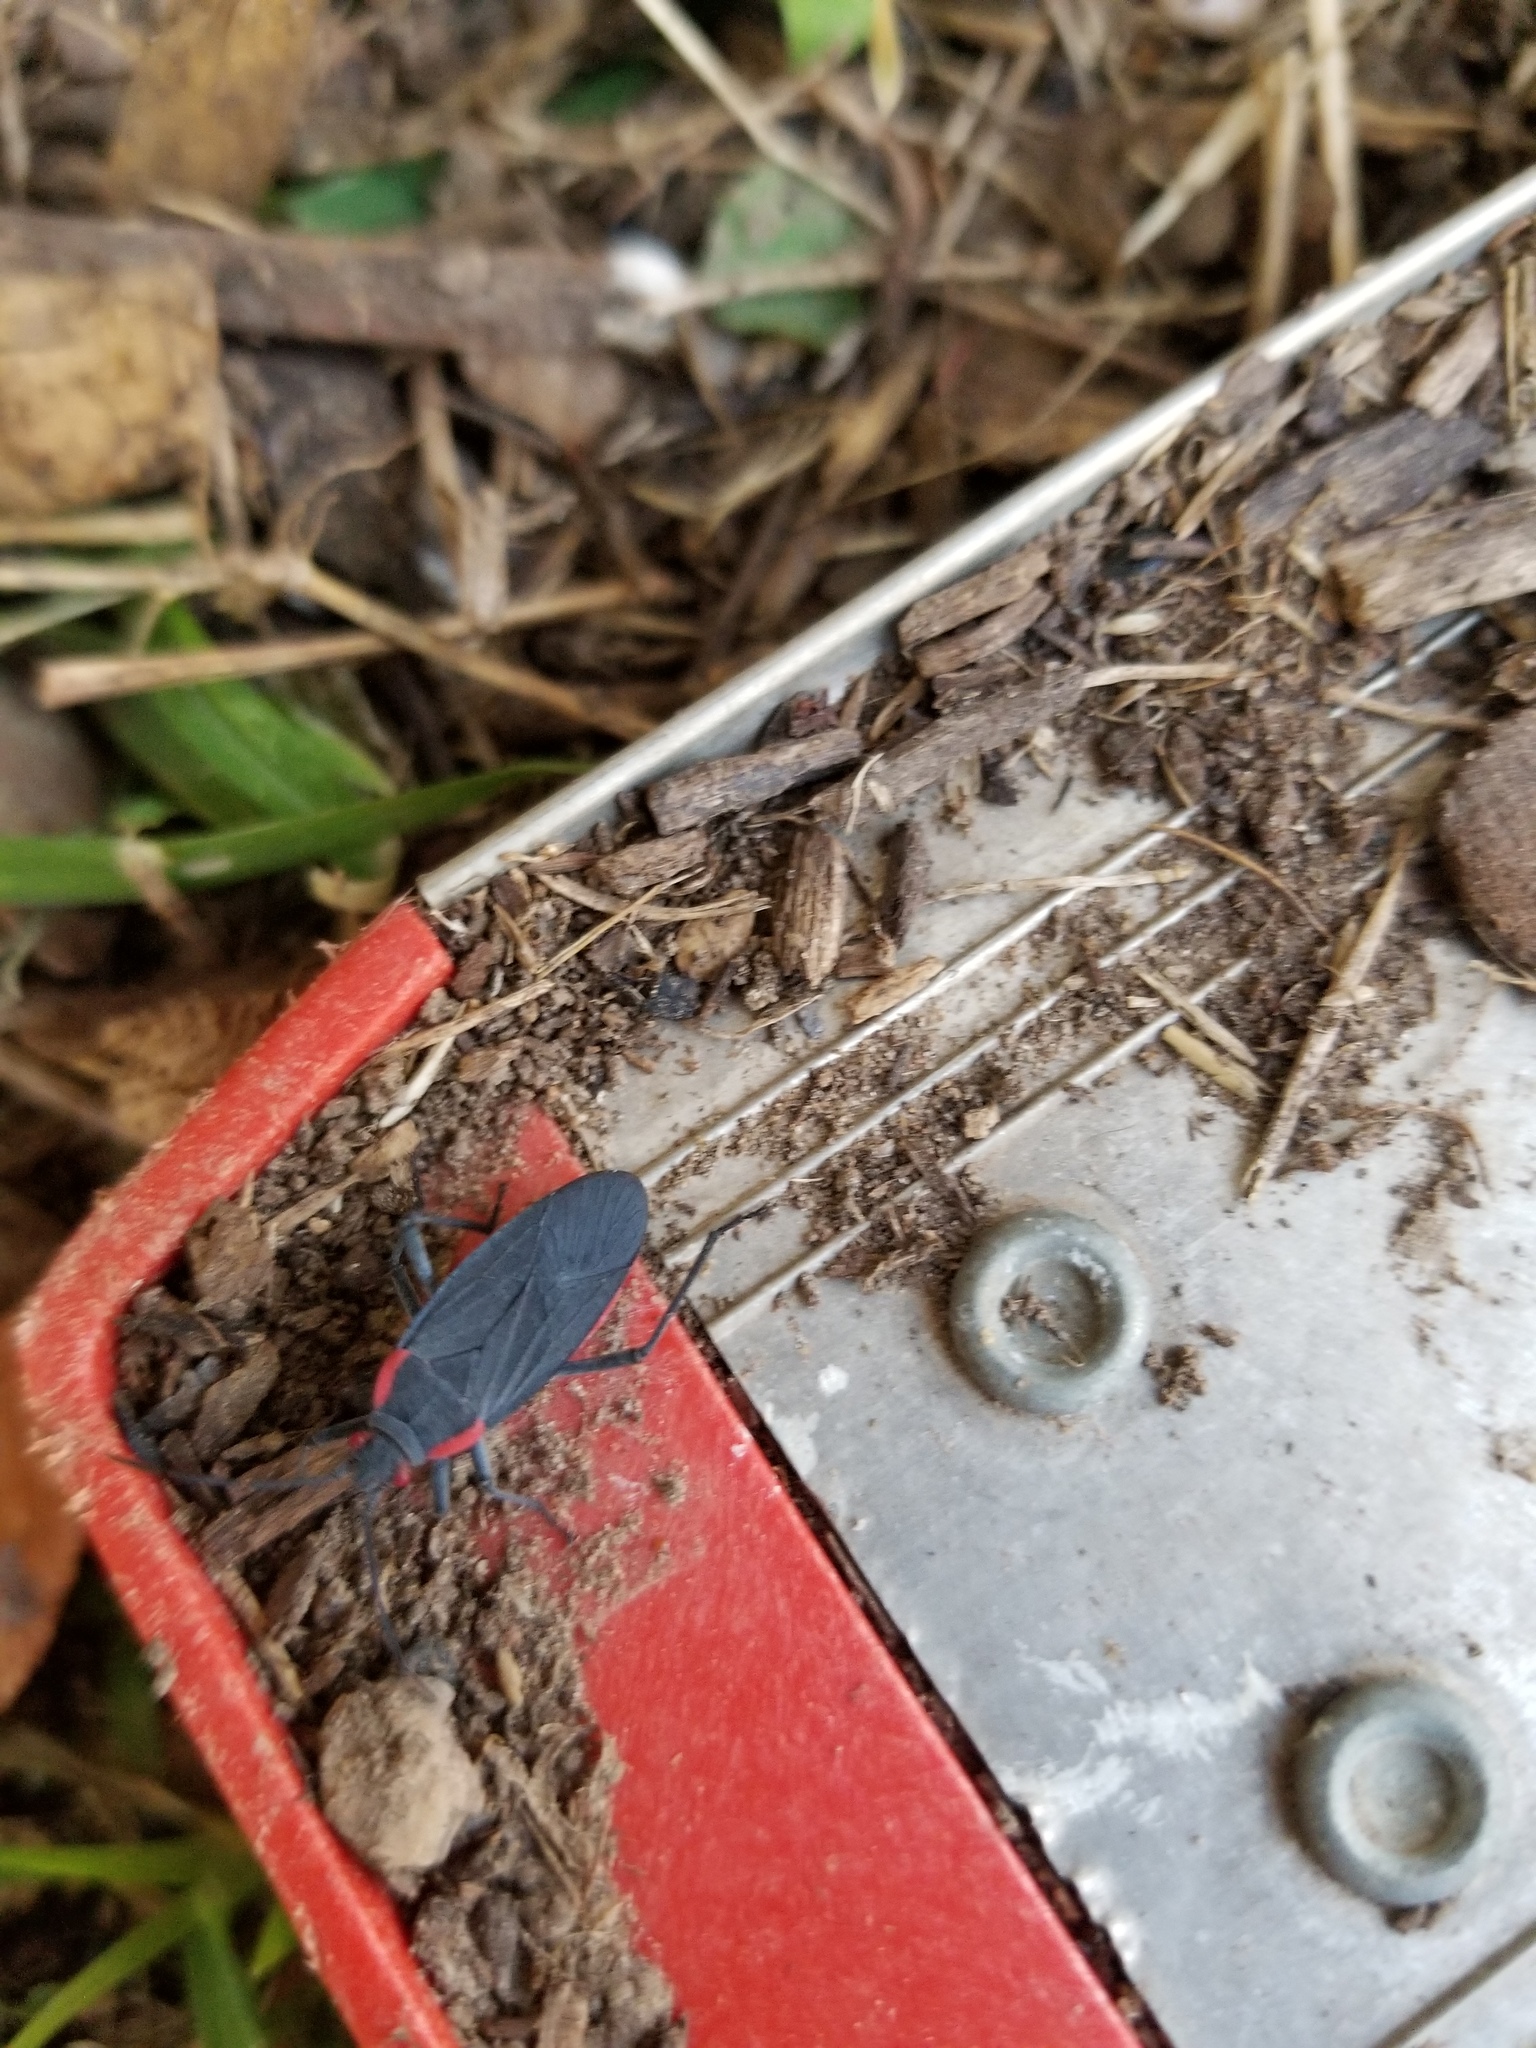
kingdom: Animalia
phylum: Arthropoda
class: Insecta
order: Hemiptera
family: Rhopalidae
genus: Jadera
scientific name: Jadera haematoloma
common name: Red-shouldered bug
